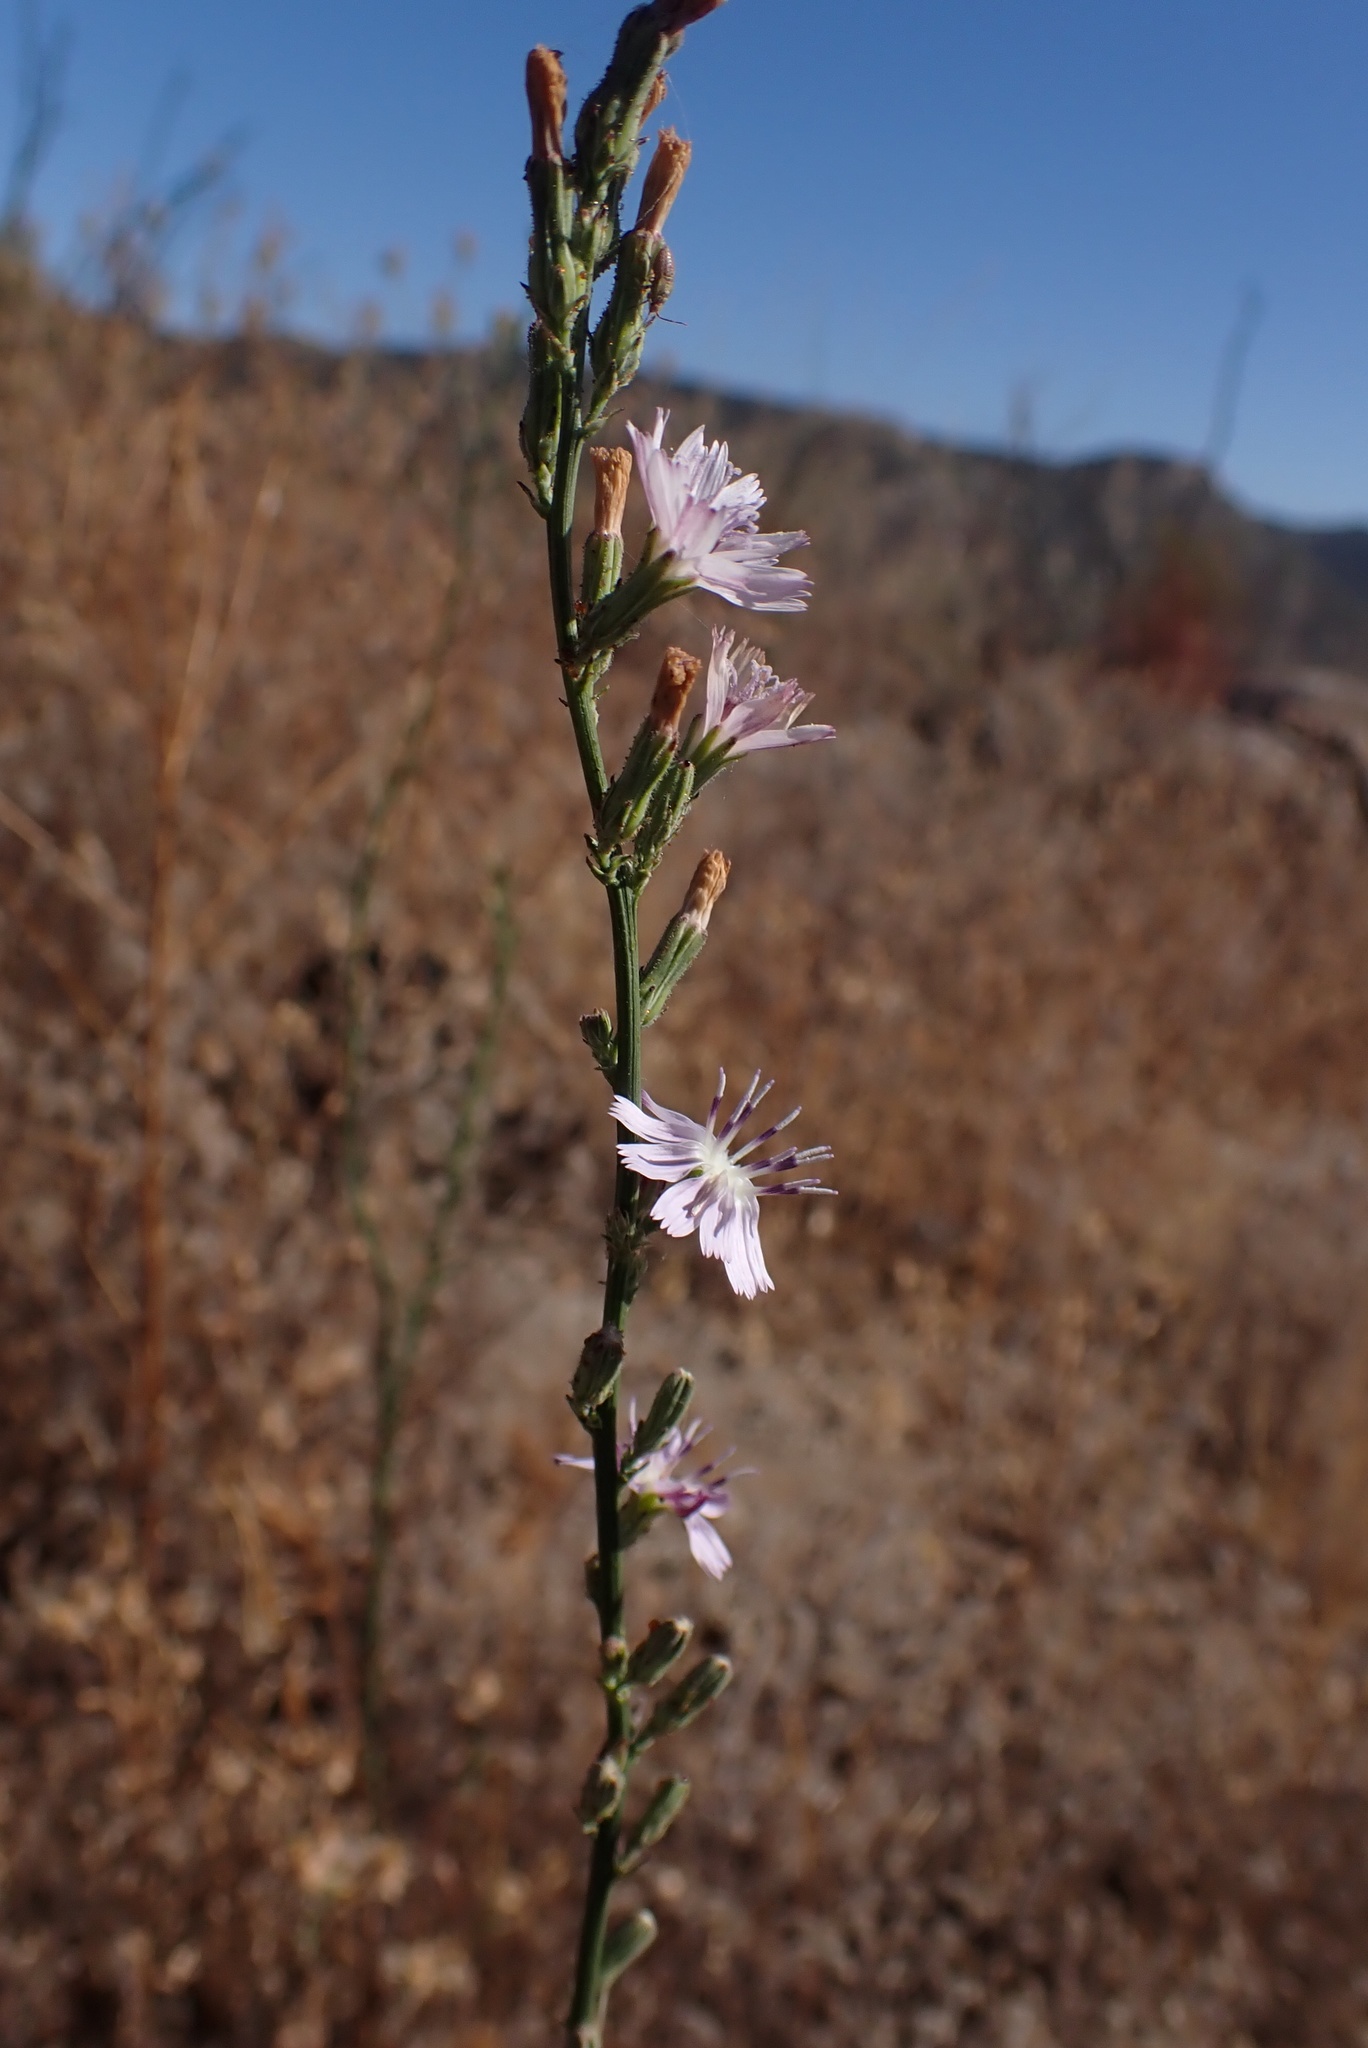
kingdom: Plantae
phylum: Tracheophyta
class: Magnoliopsida
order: Asterales
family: Asteraceae
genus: Stephanomeria
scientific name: Stephanomeria diegensis
